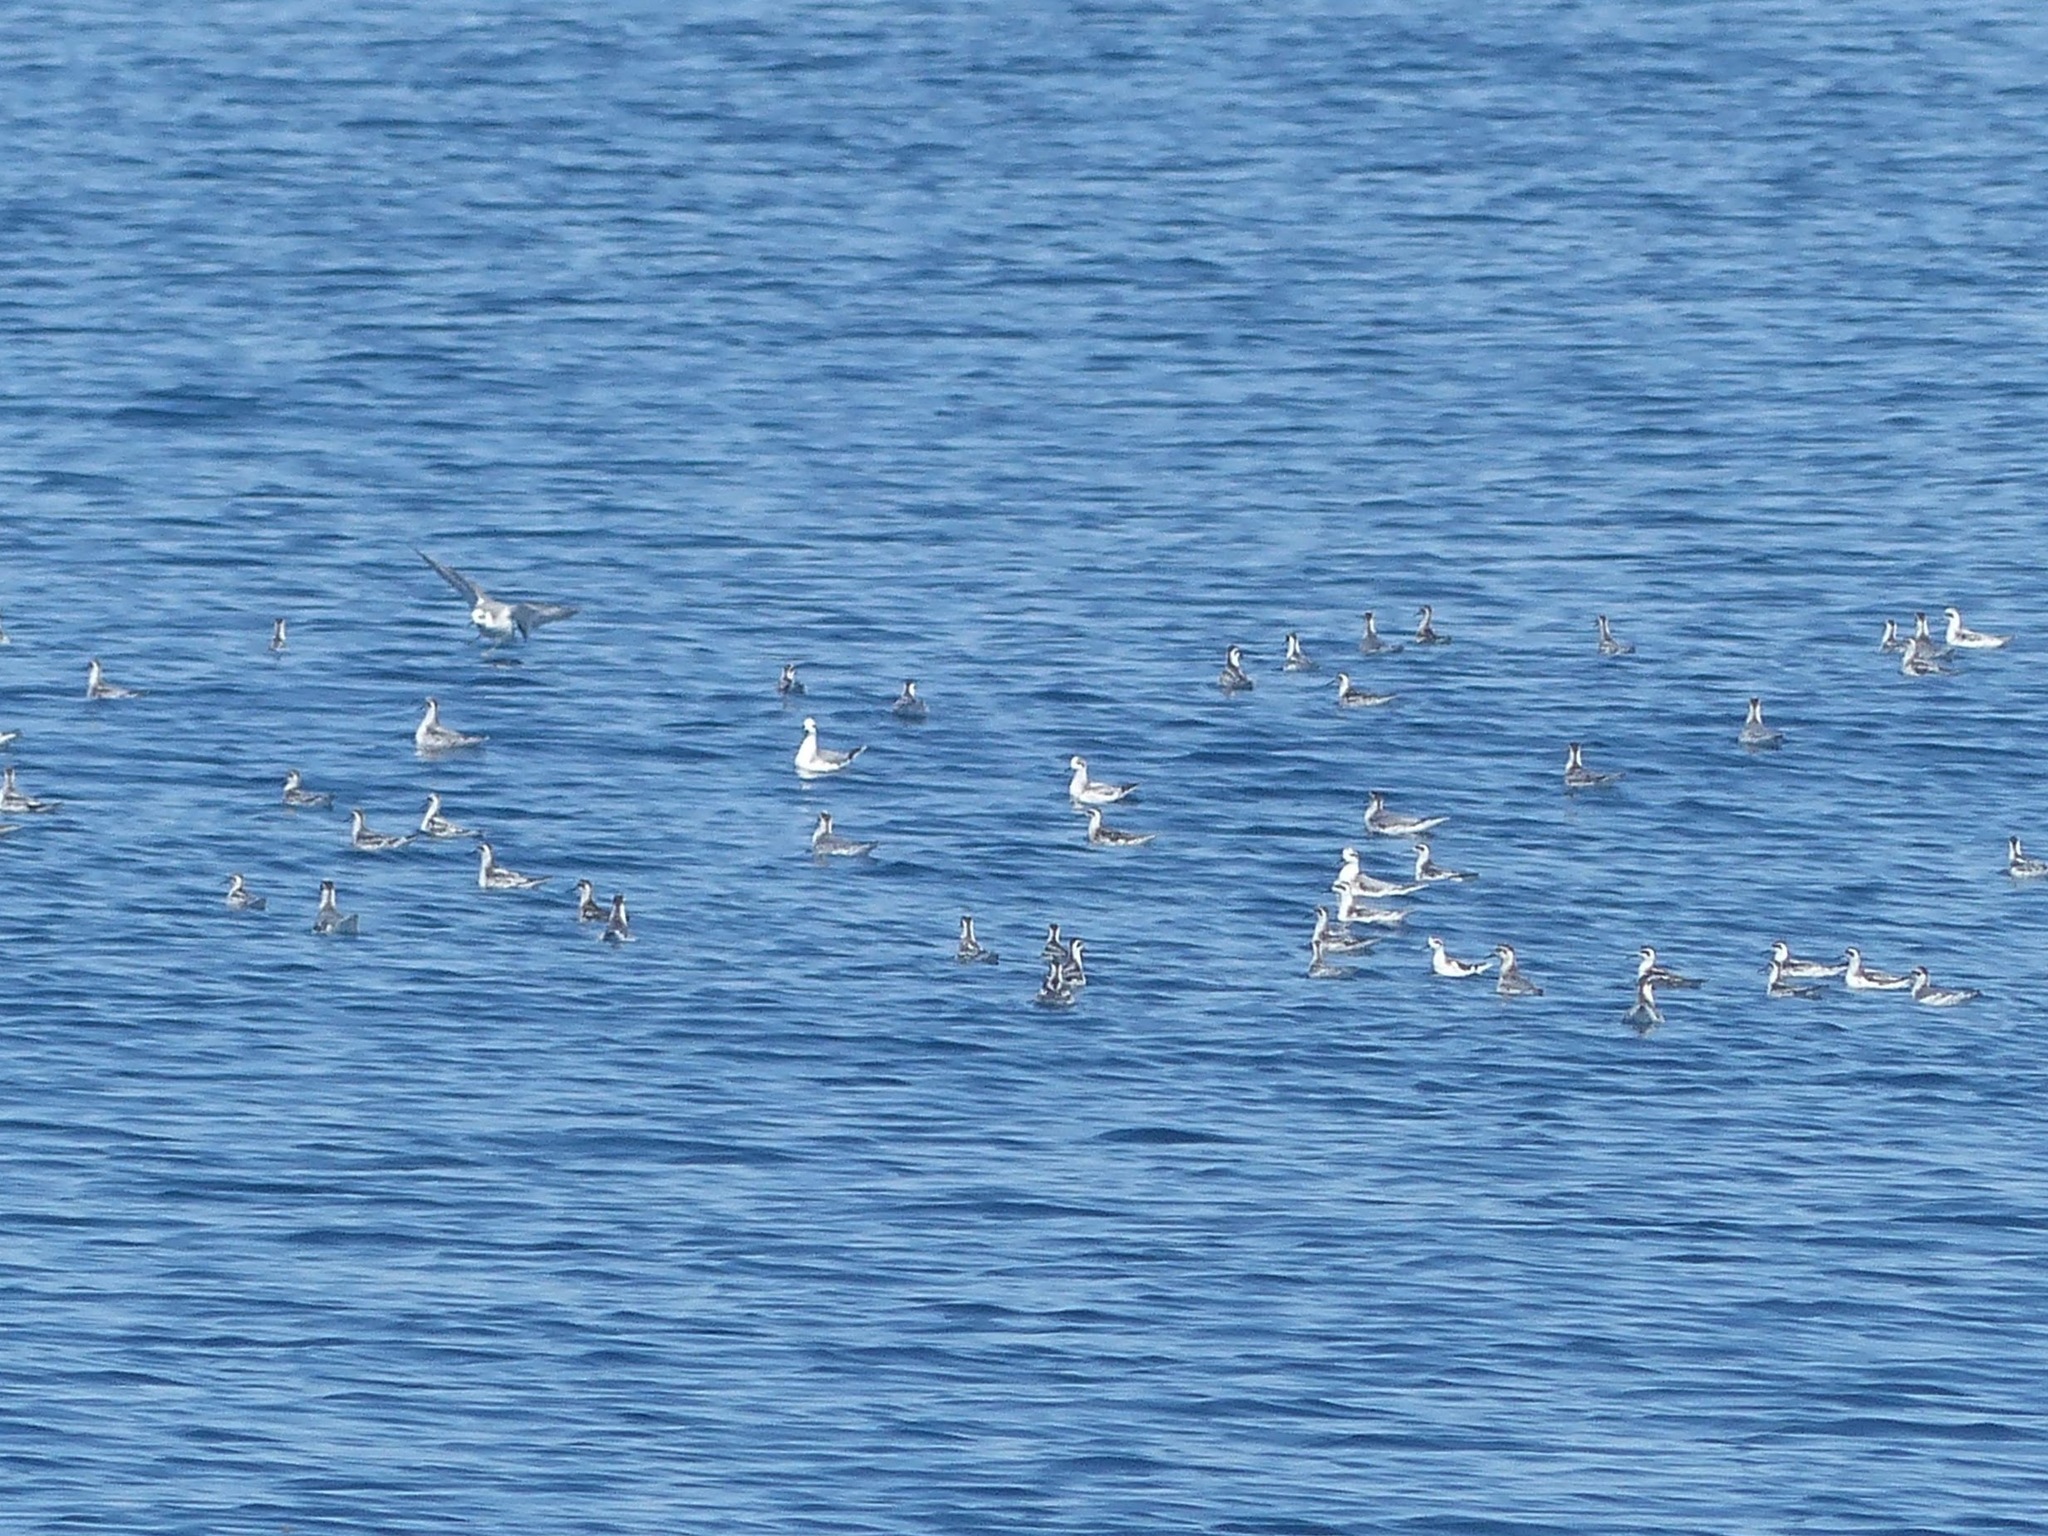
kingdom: Animalia
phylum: Chordata
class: Aves
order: Charadriiformes
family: Scolopacidae
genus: Phalaropus
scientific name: Phalaropus lobatus
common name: Red-necked phalarope
